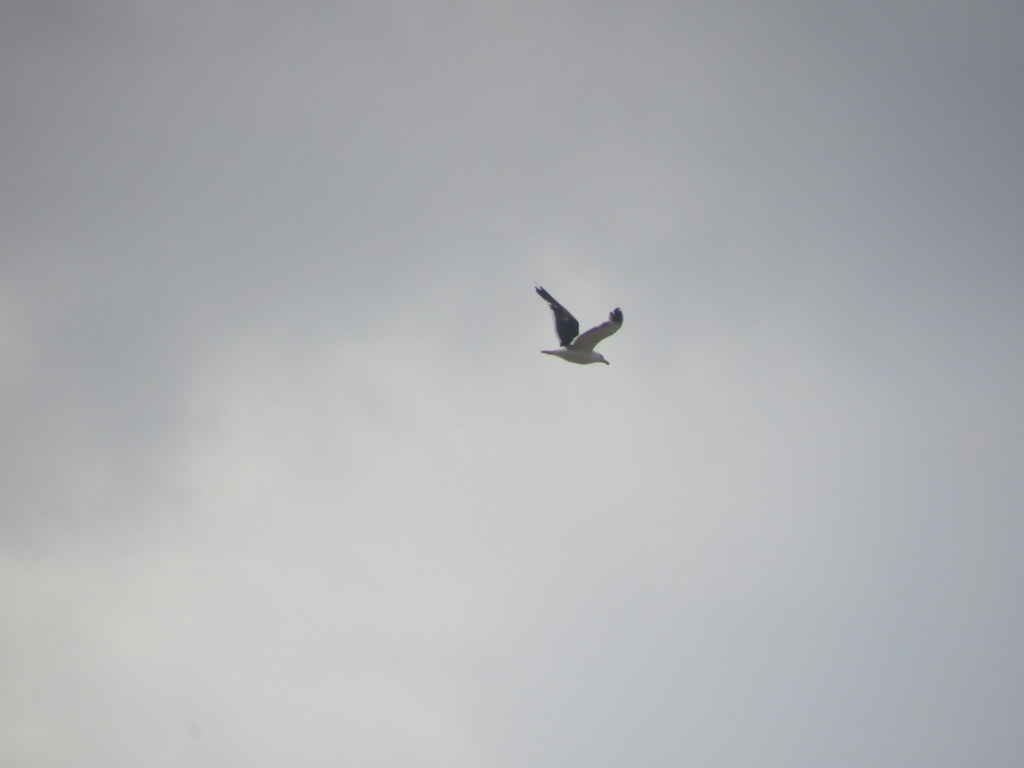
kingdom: Animalia
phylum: Chordata
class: Aves
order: Charadriiformes
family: Laridae
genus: Larus
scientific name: Larus dominicanus
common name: Kelp gull
